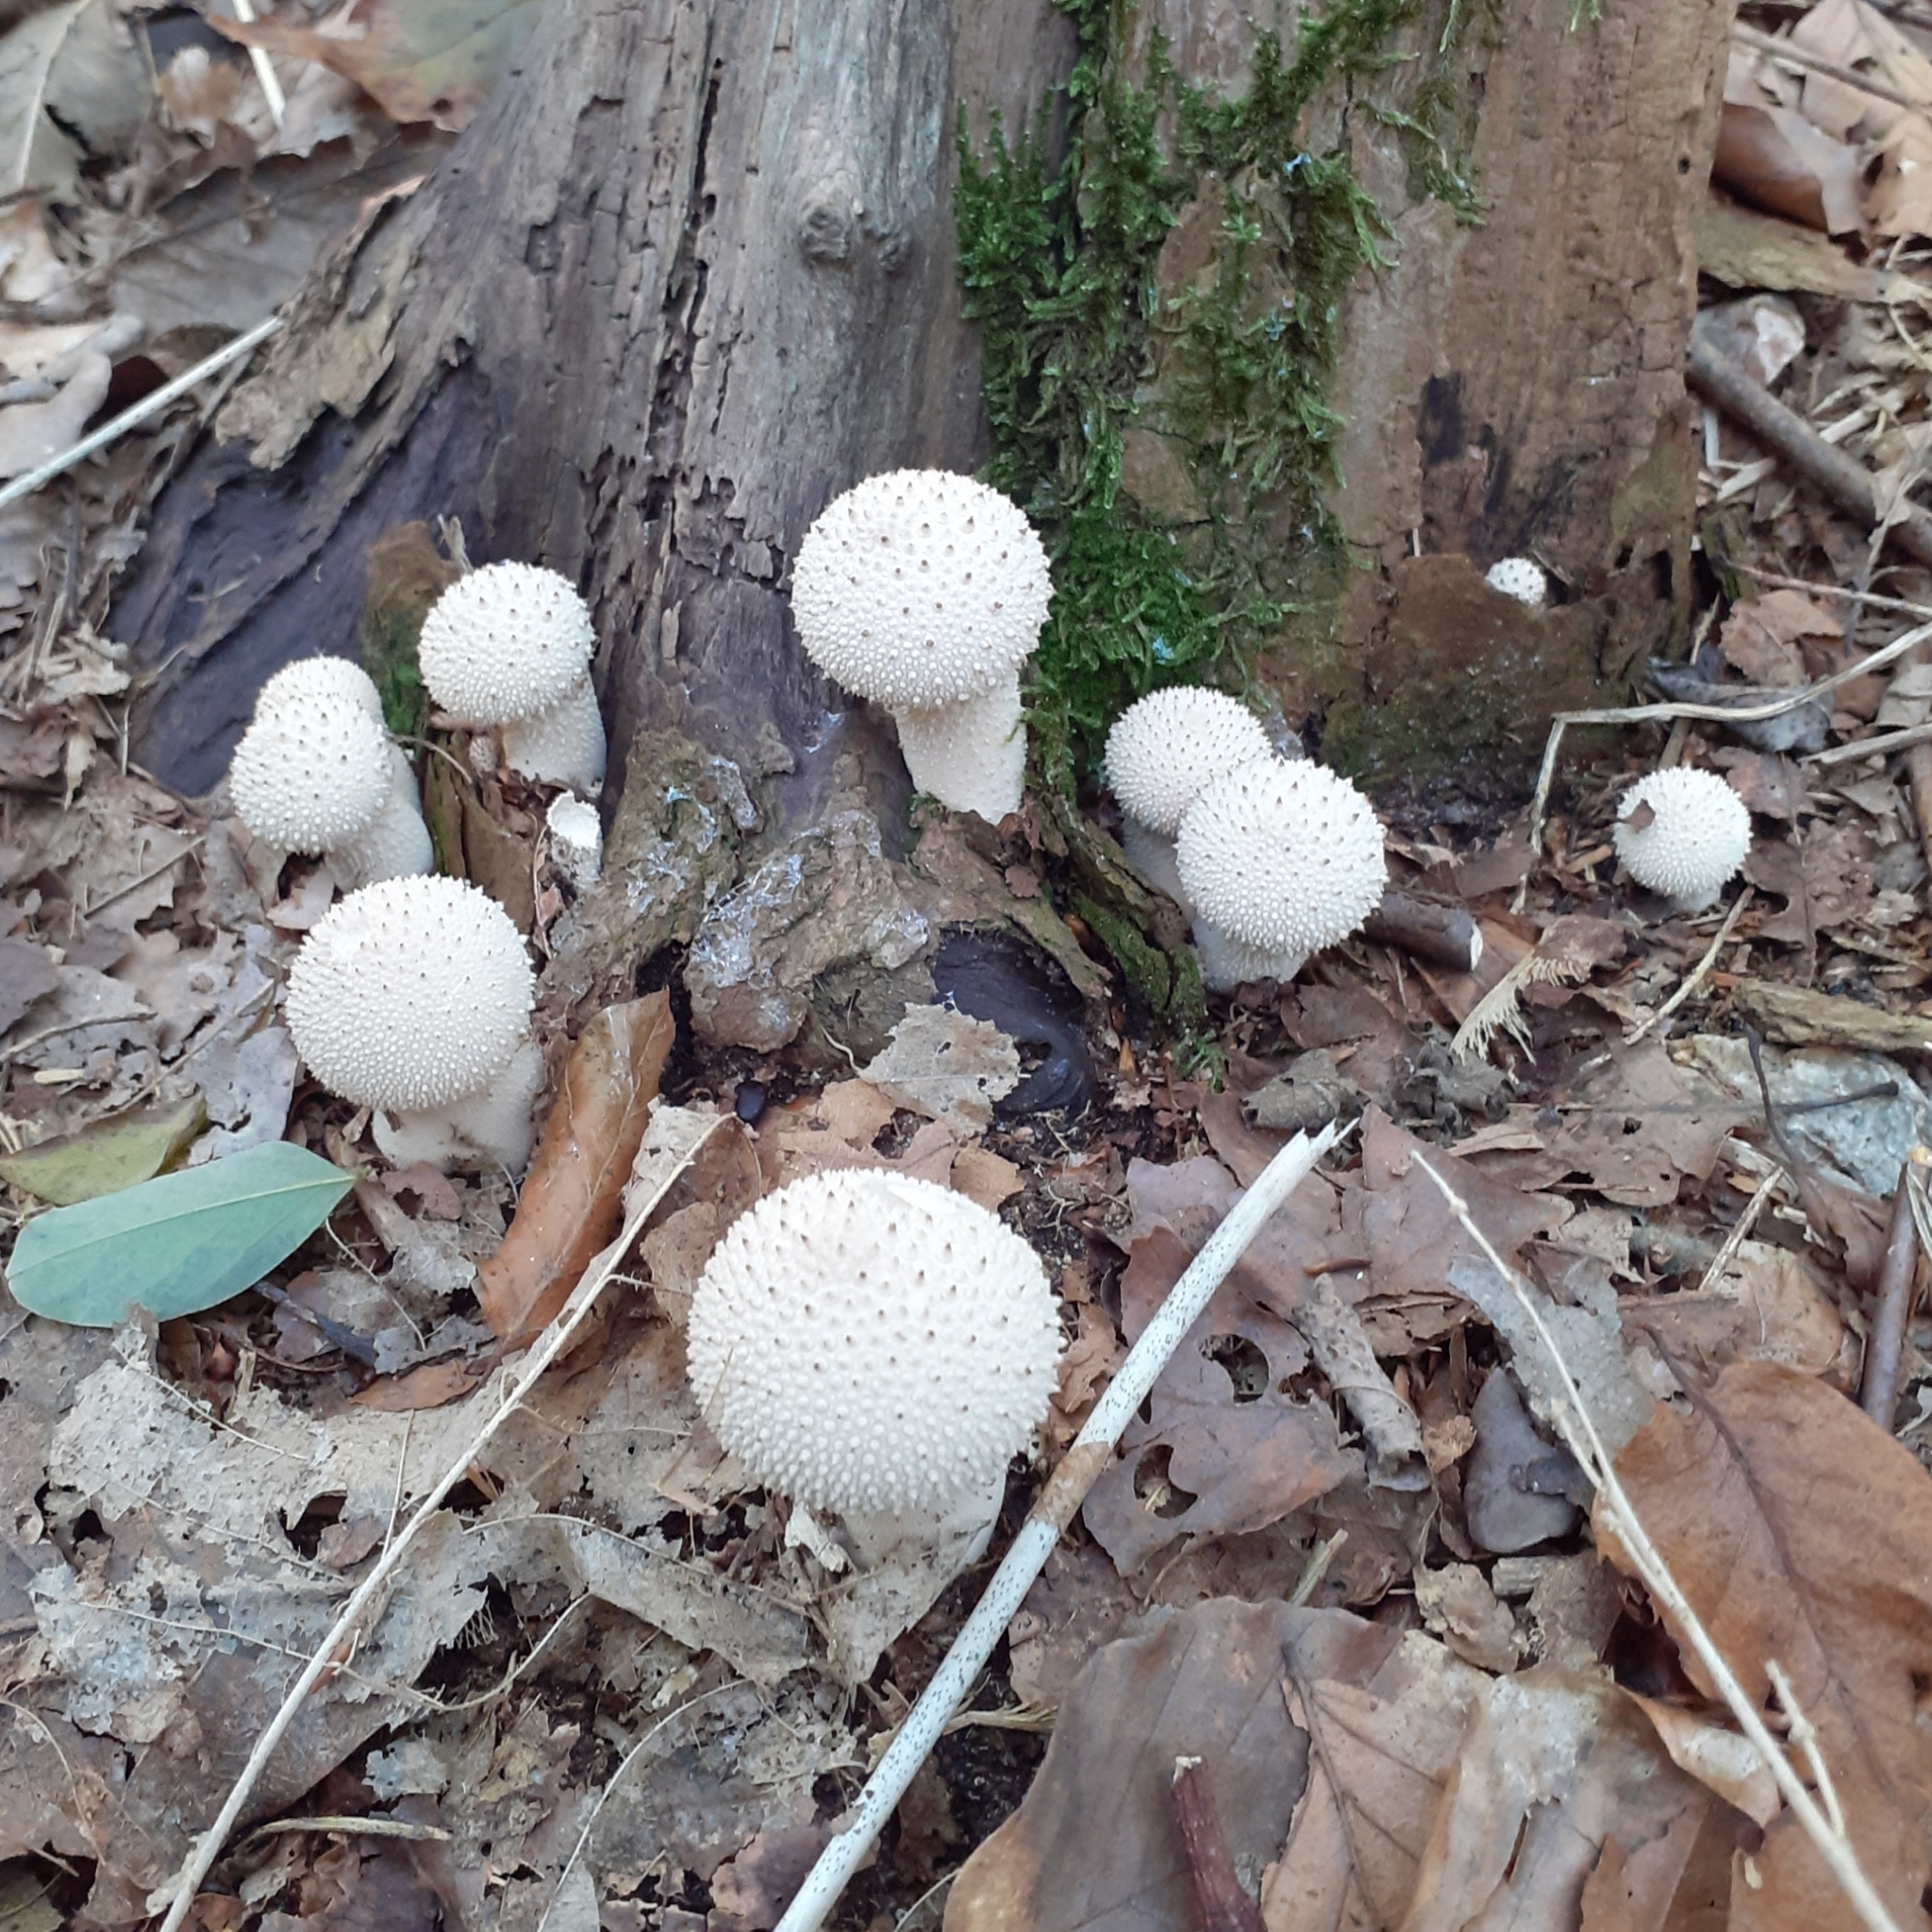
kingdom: Fungi
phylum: Basidiomycota
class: Agaricomycetes
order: Agaricales
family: Lycoperdaceae
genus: Lycoperdon
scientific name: Lycoperdon perlatum
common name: Common puffball
